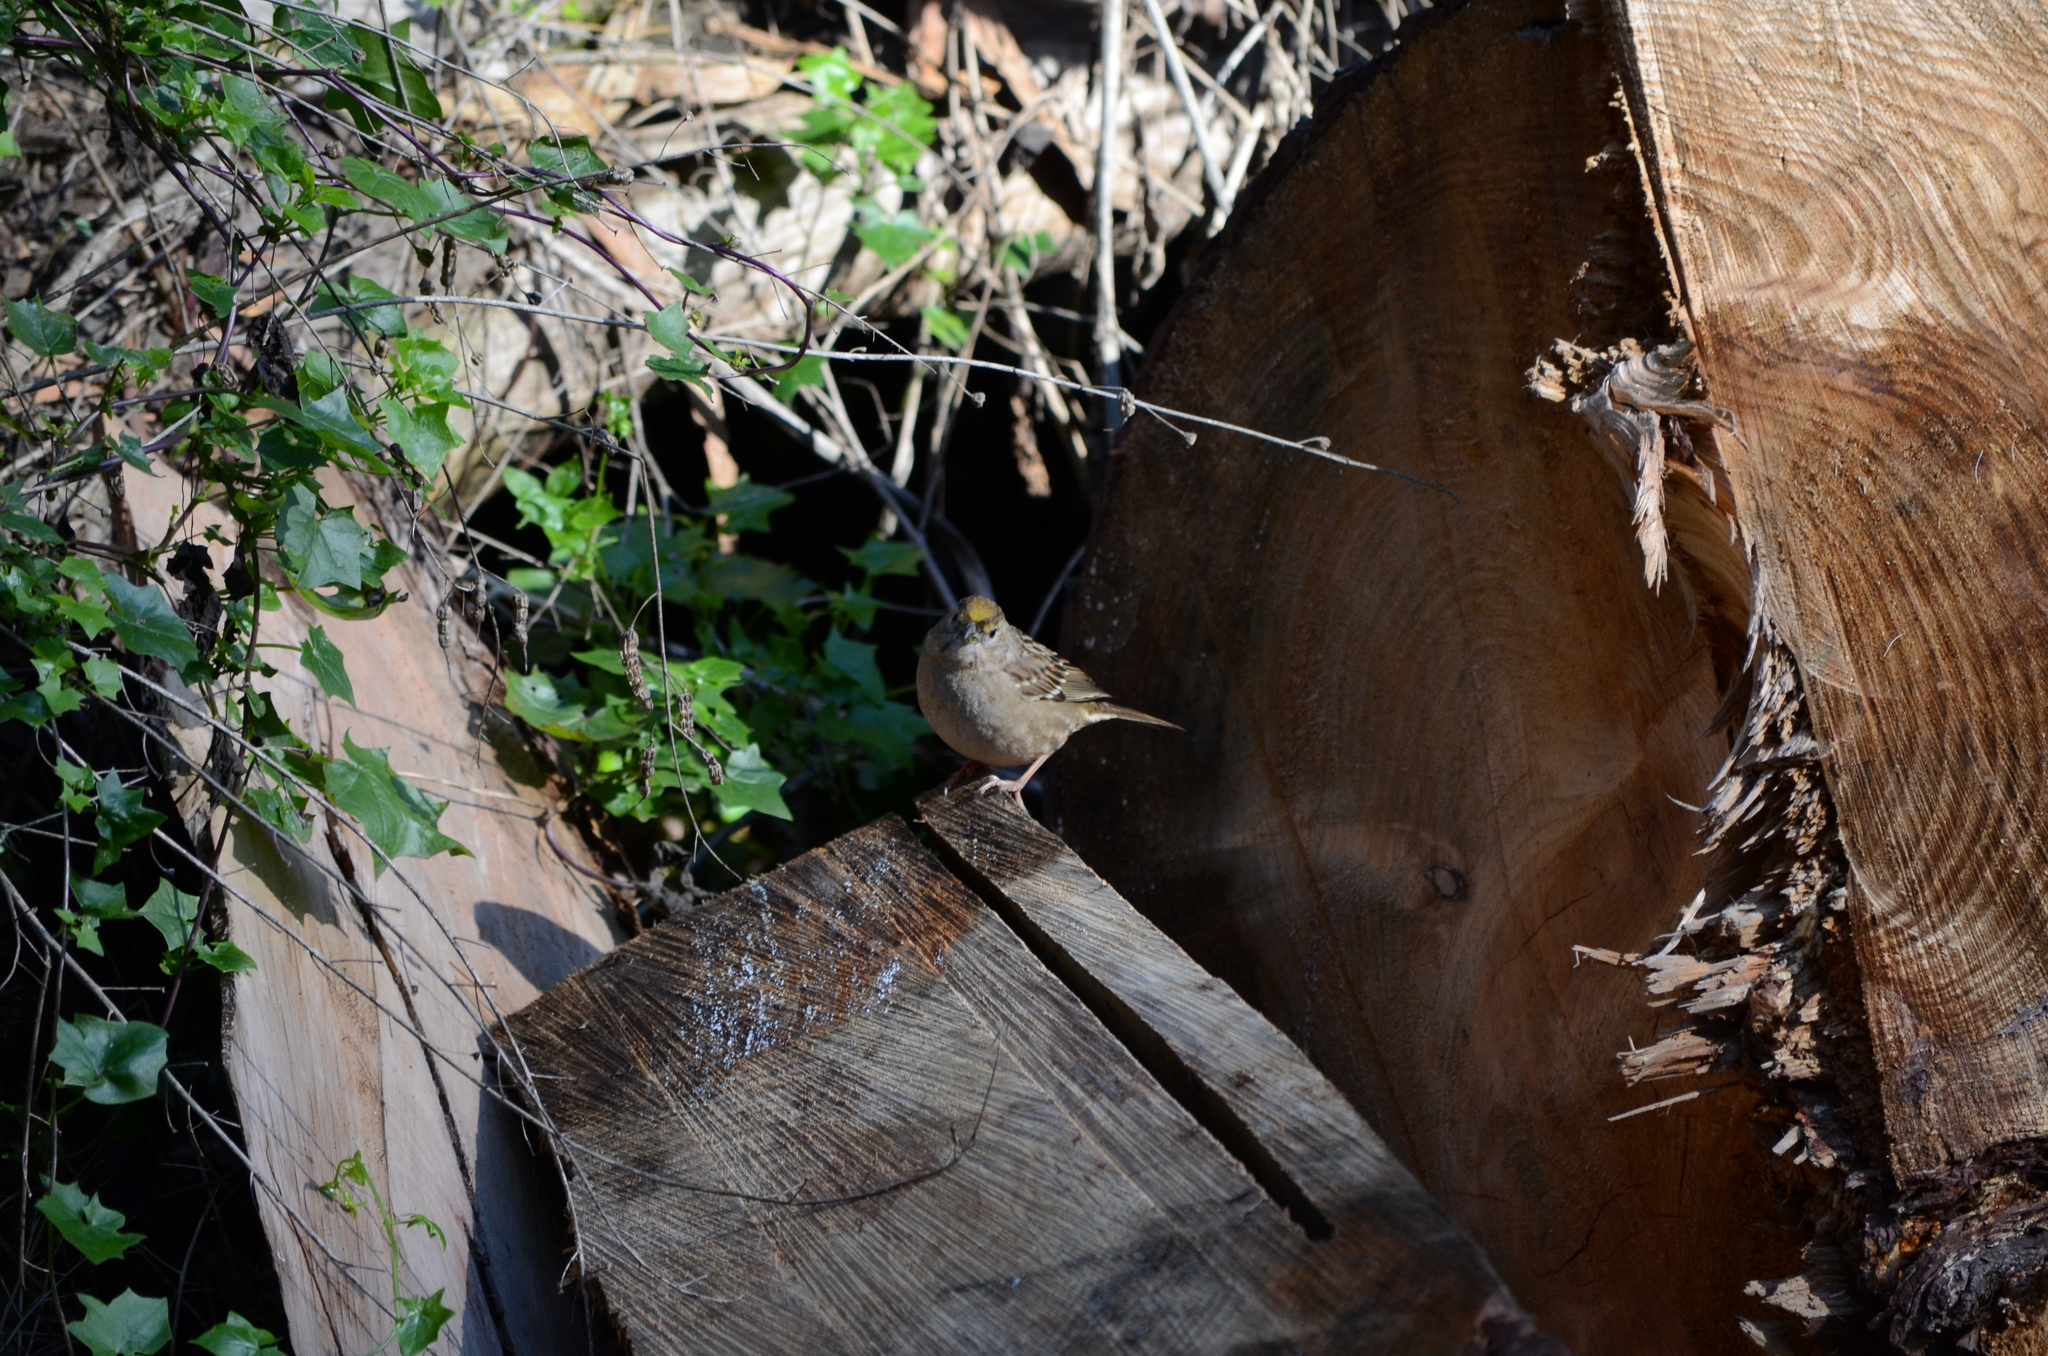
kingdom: Animalia
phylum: Chordata
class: Aves
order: Passeriformes
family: Passerellidae
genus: Zonotrichia
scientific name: Zonotrichia atricapilla
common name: Golden-crowned sparrow
